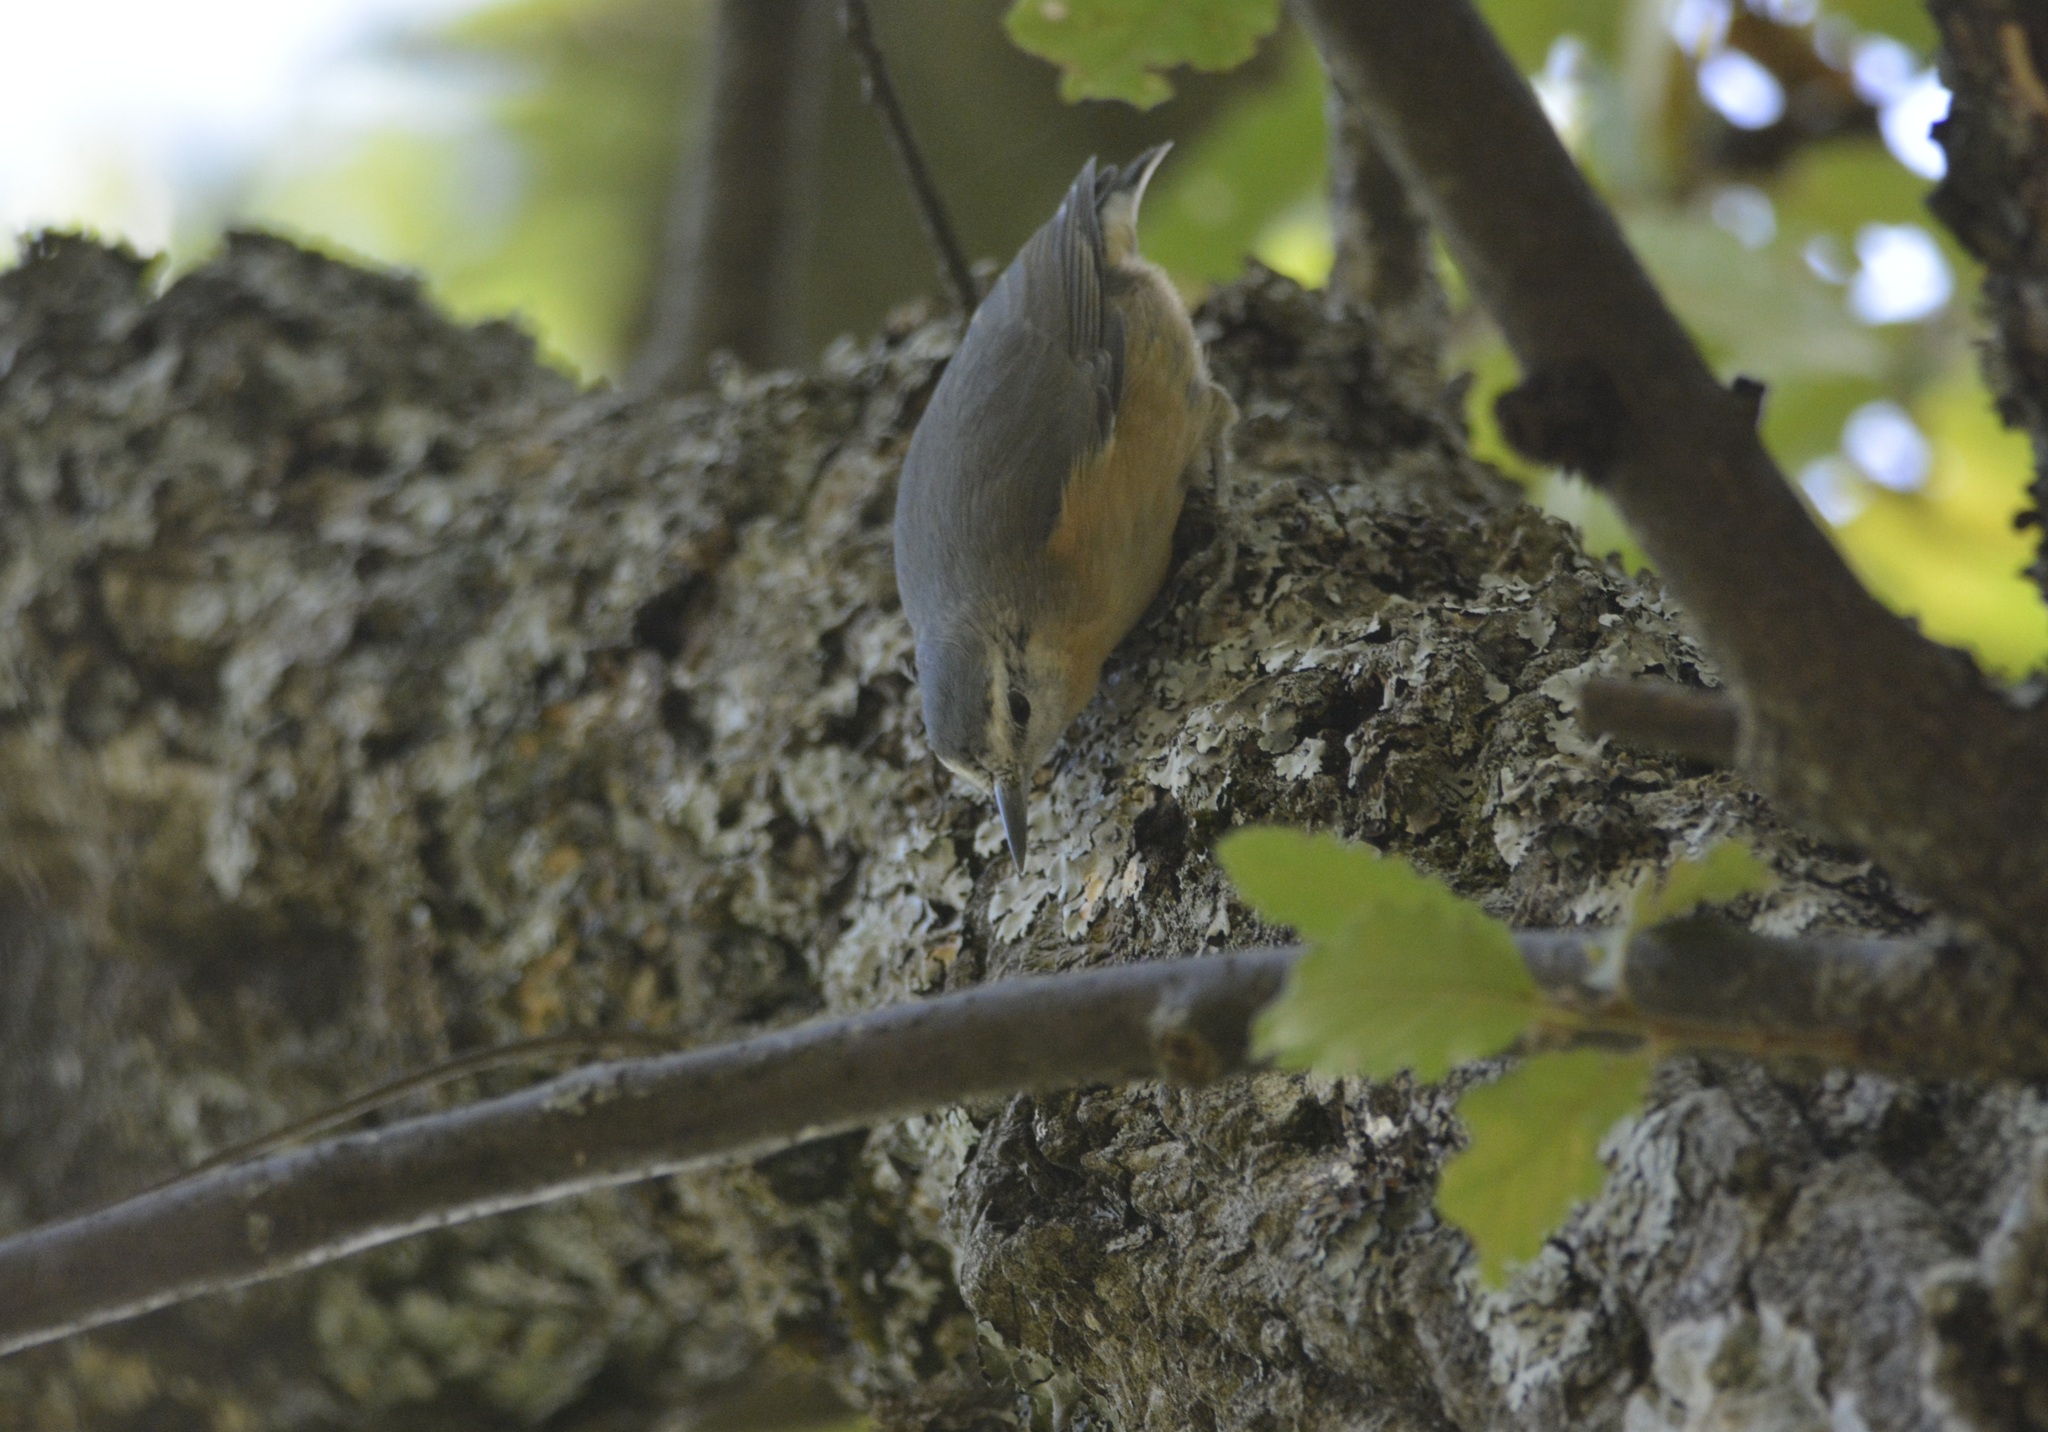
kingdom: Animalia
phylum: Chordata
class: Aves
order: Passeriformes
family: Sittidae
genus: Sitta
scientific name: Sitta ledanti
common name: Algerian nuthatch
